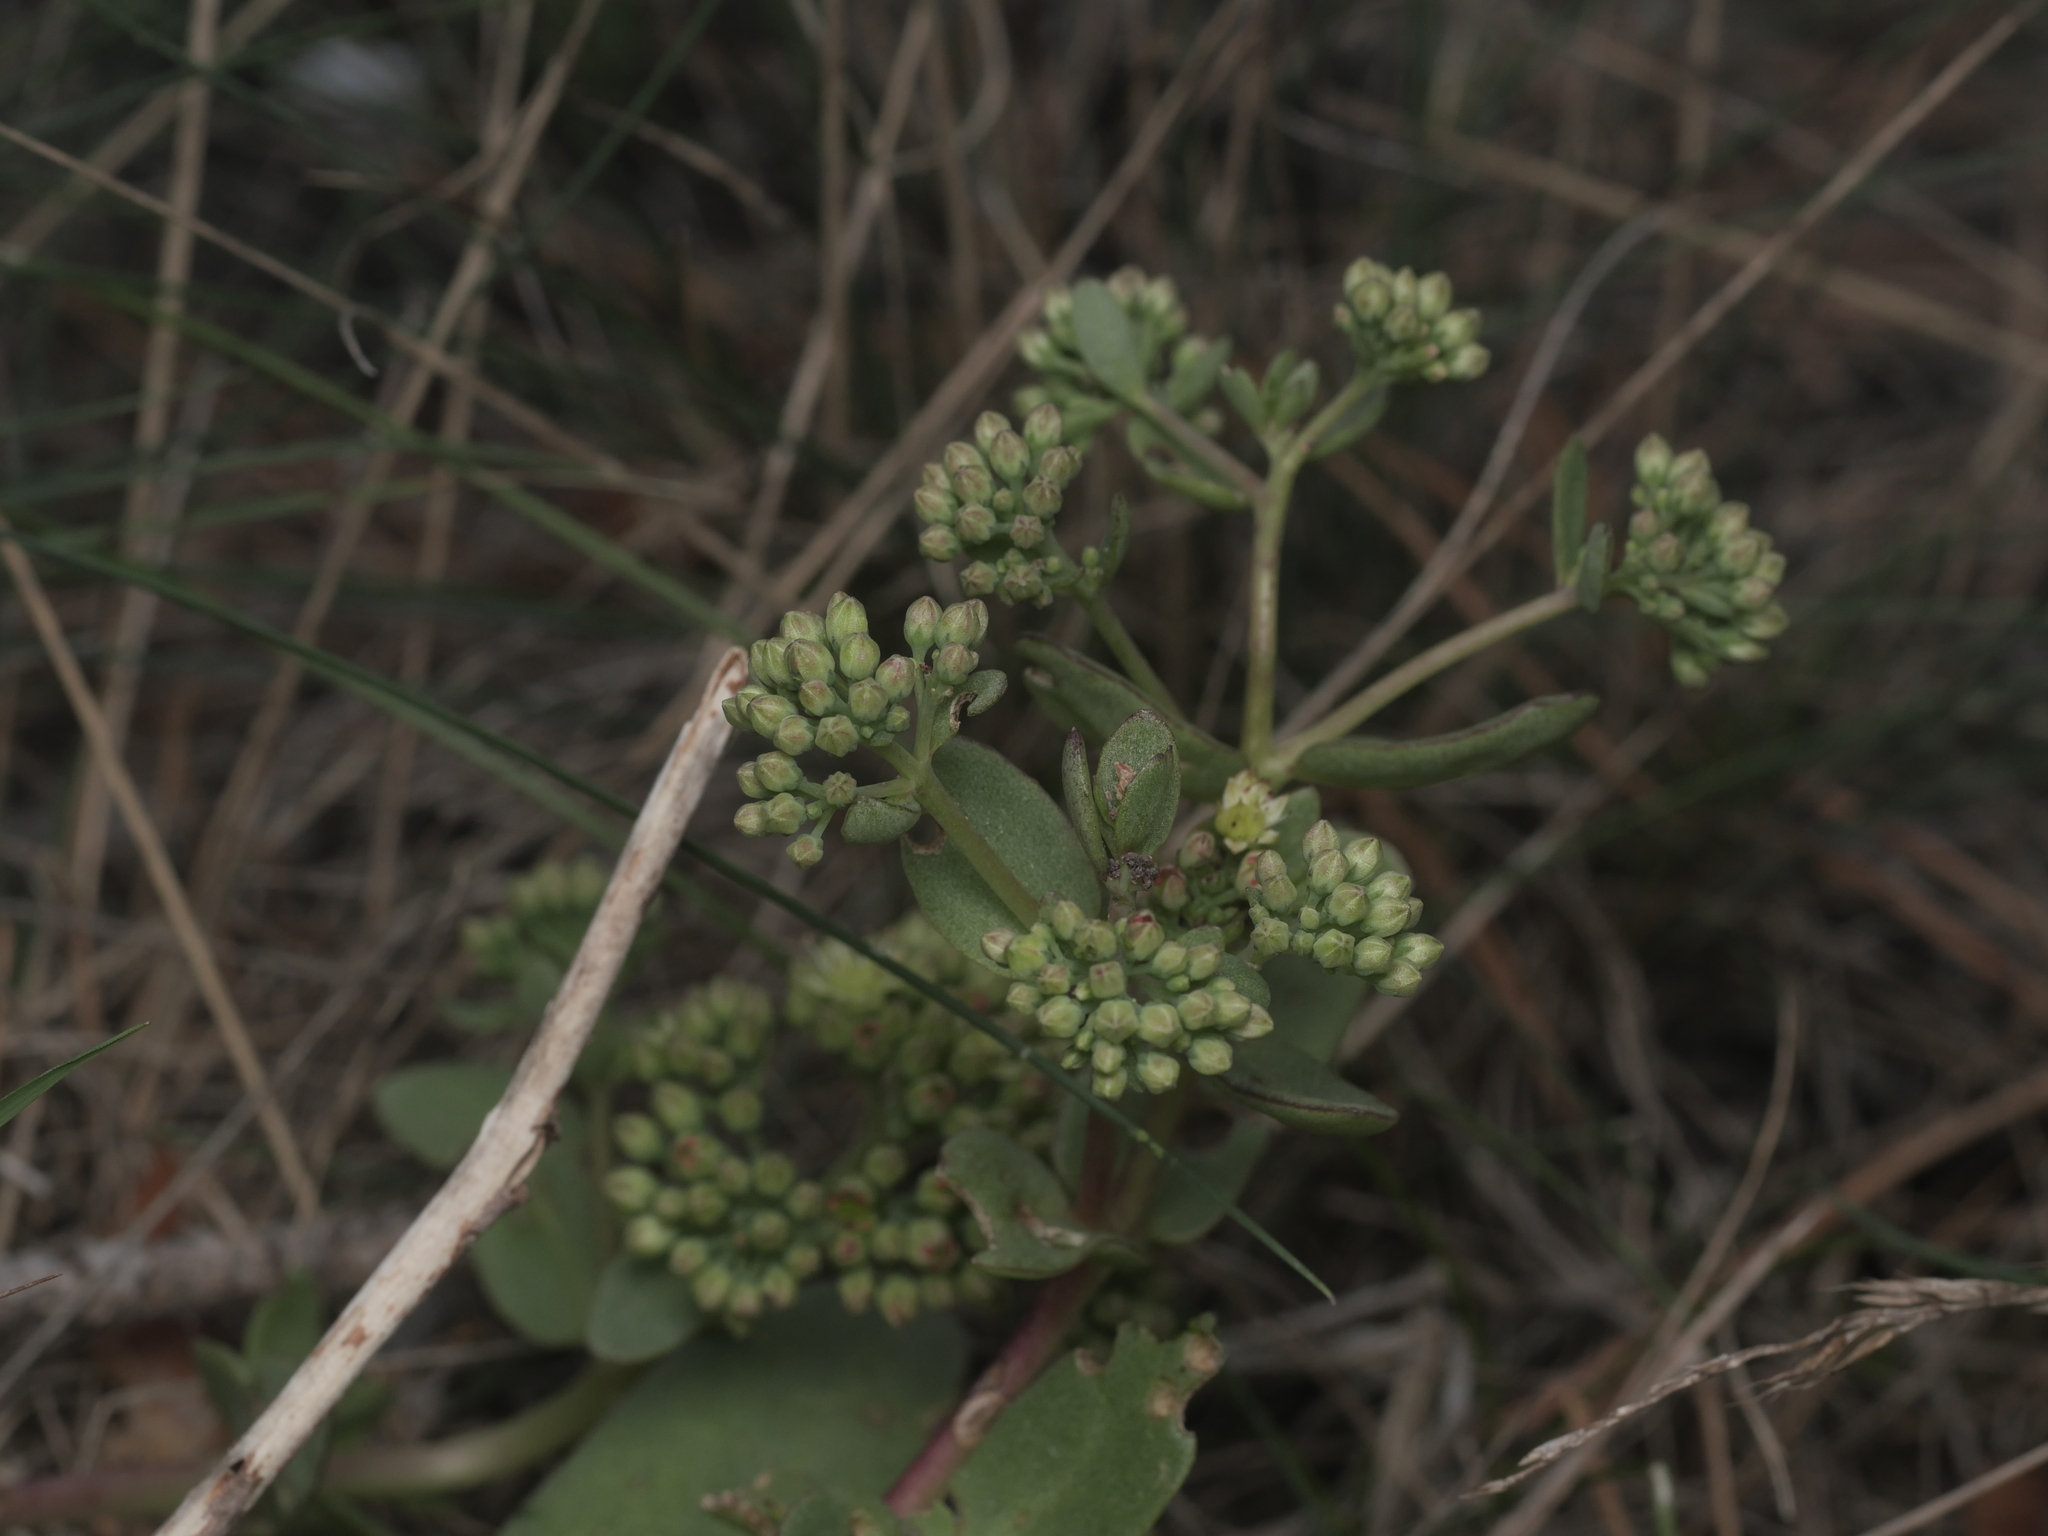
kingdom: Plantae
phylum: Tracheophyta
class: Magnoliopsida
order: Saxifragales
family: Crassulaceae
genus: Hylotelephium
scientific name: Hylotelephium maximum
